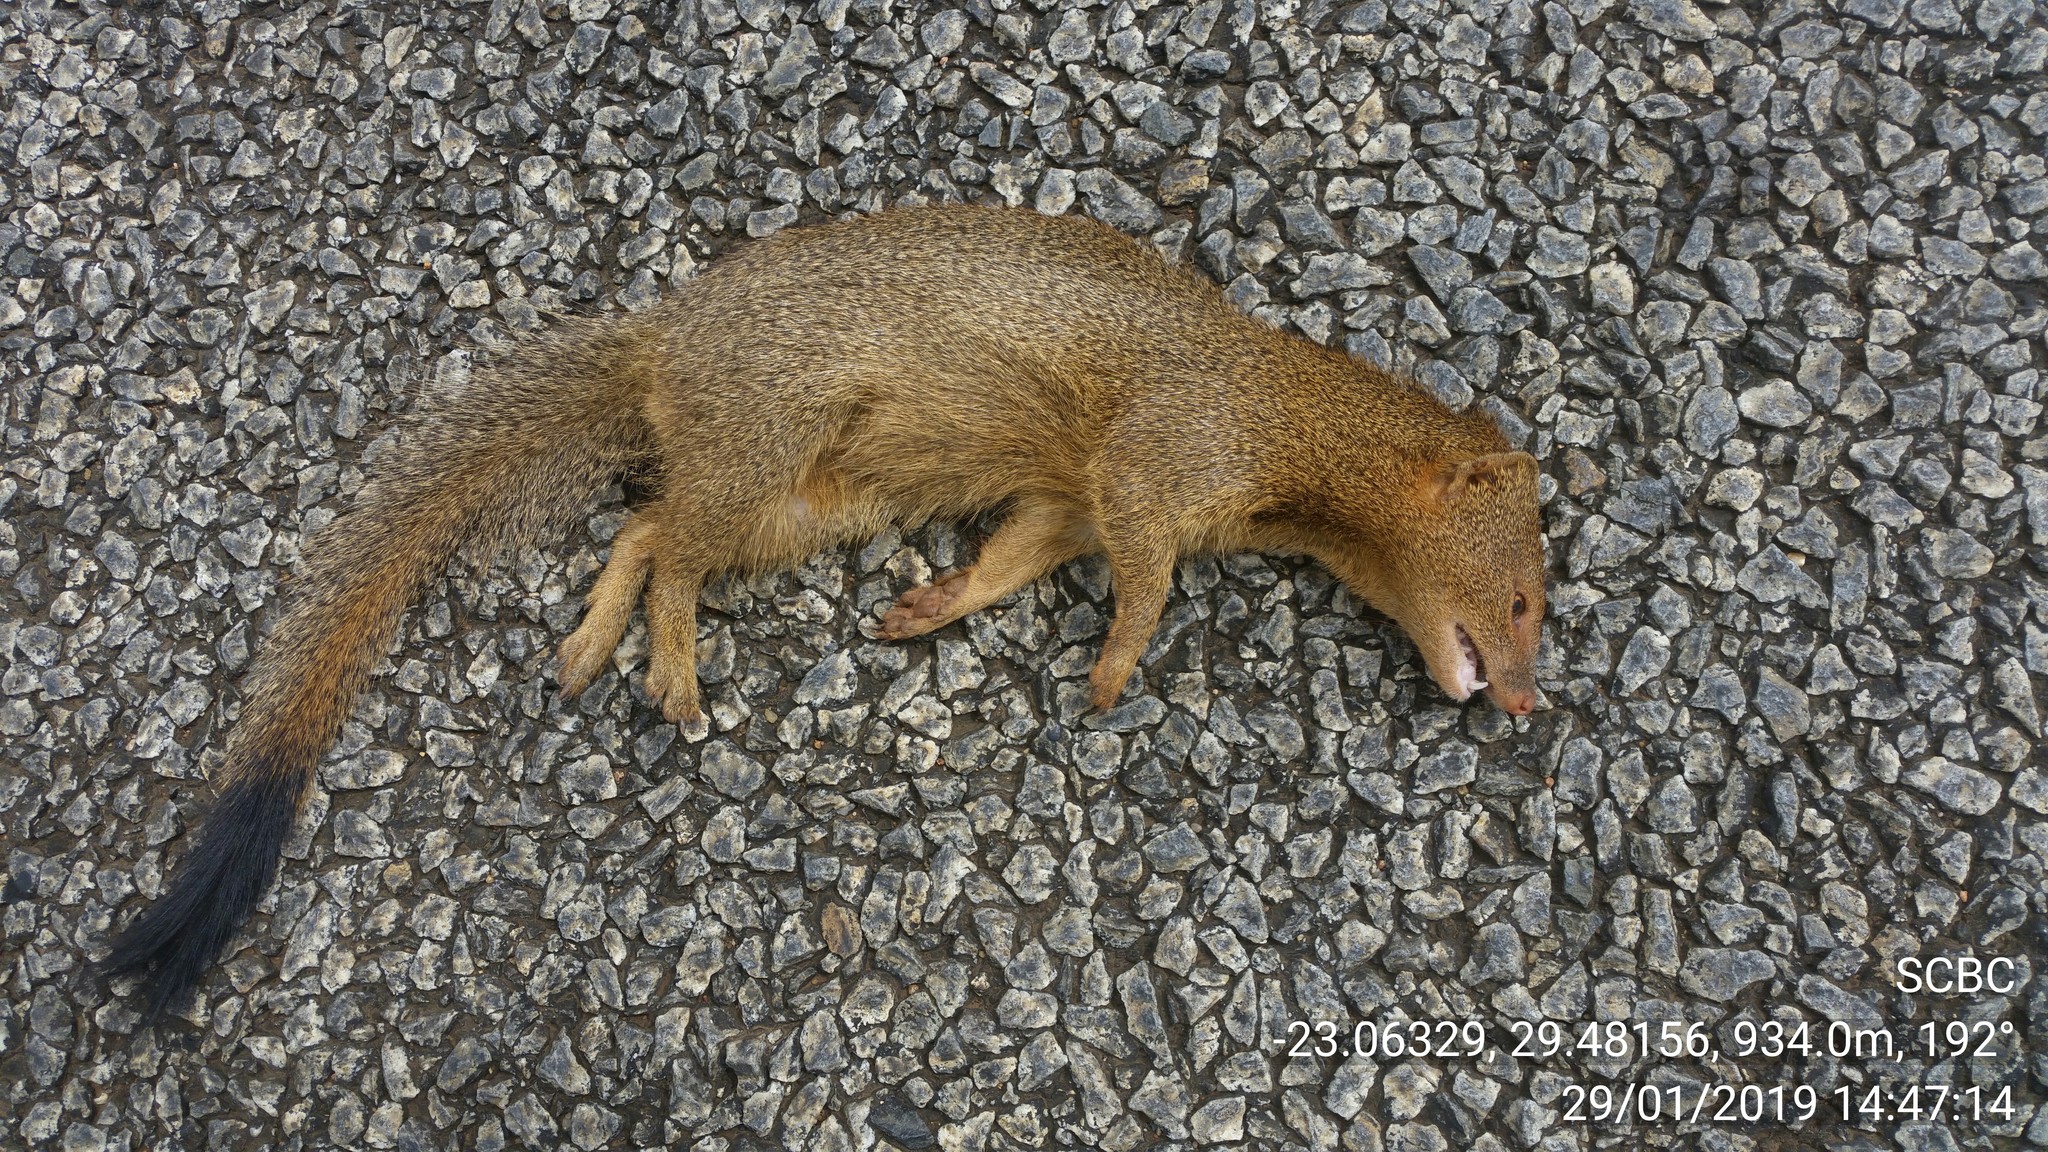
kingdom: Animalia
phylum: Chordata
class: Mammalia
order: Carnivora
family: Herpestidae
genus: Galerella
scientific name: Galerella sanguinea
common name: Slender mongoose
